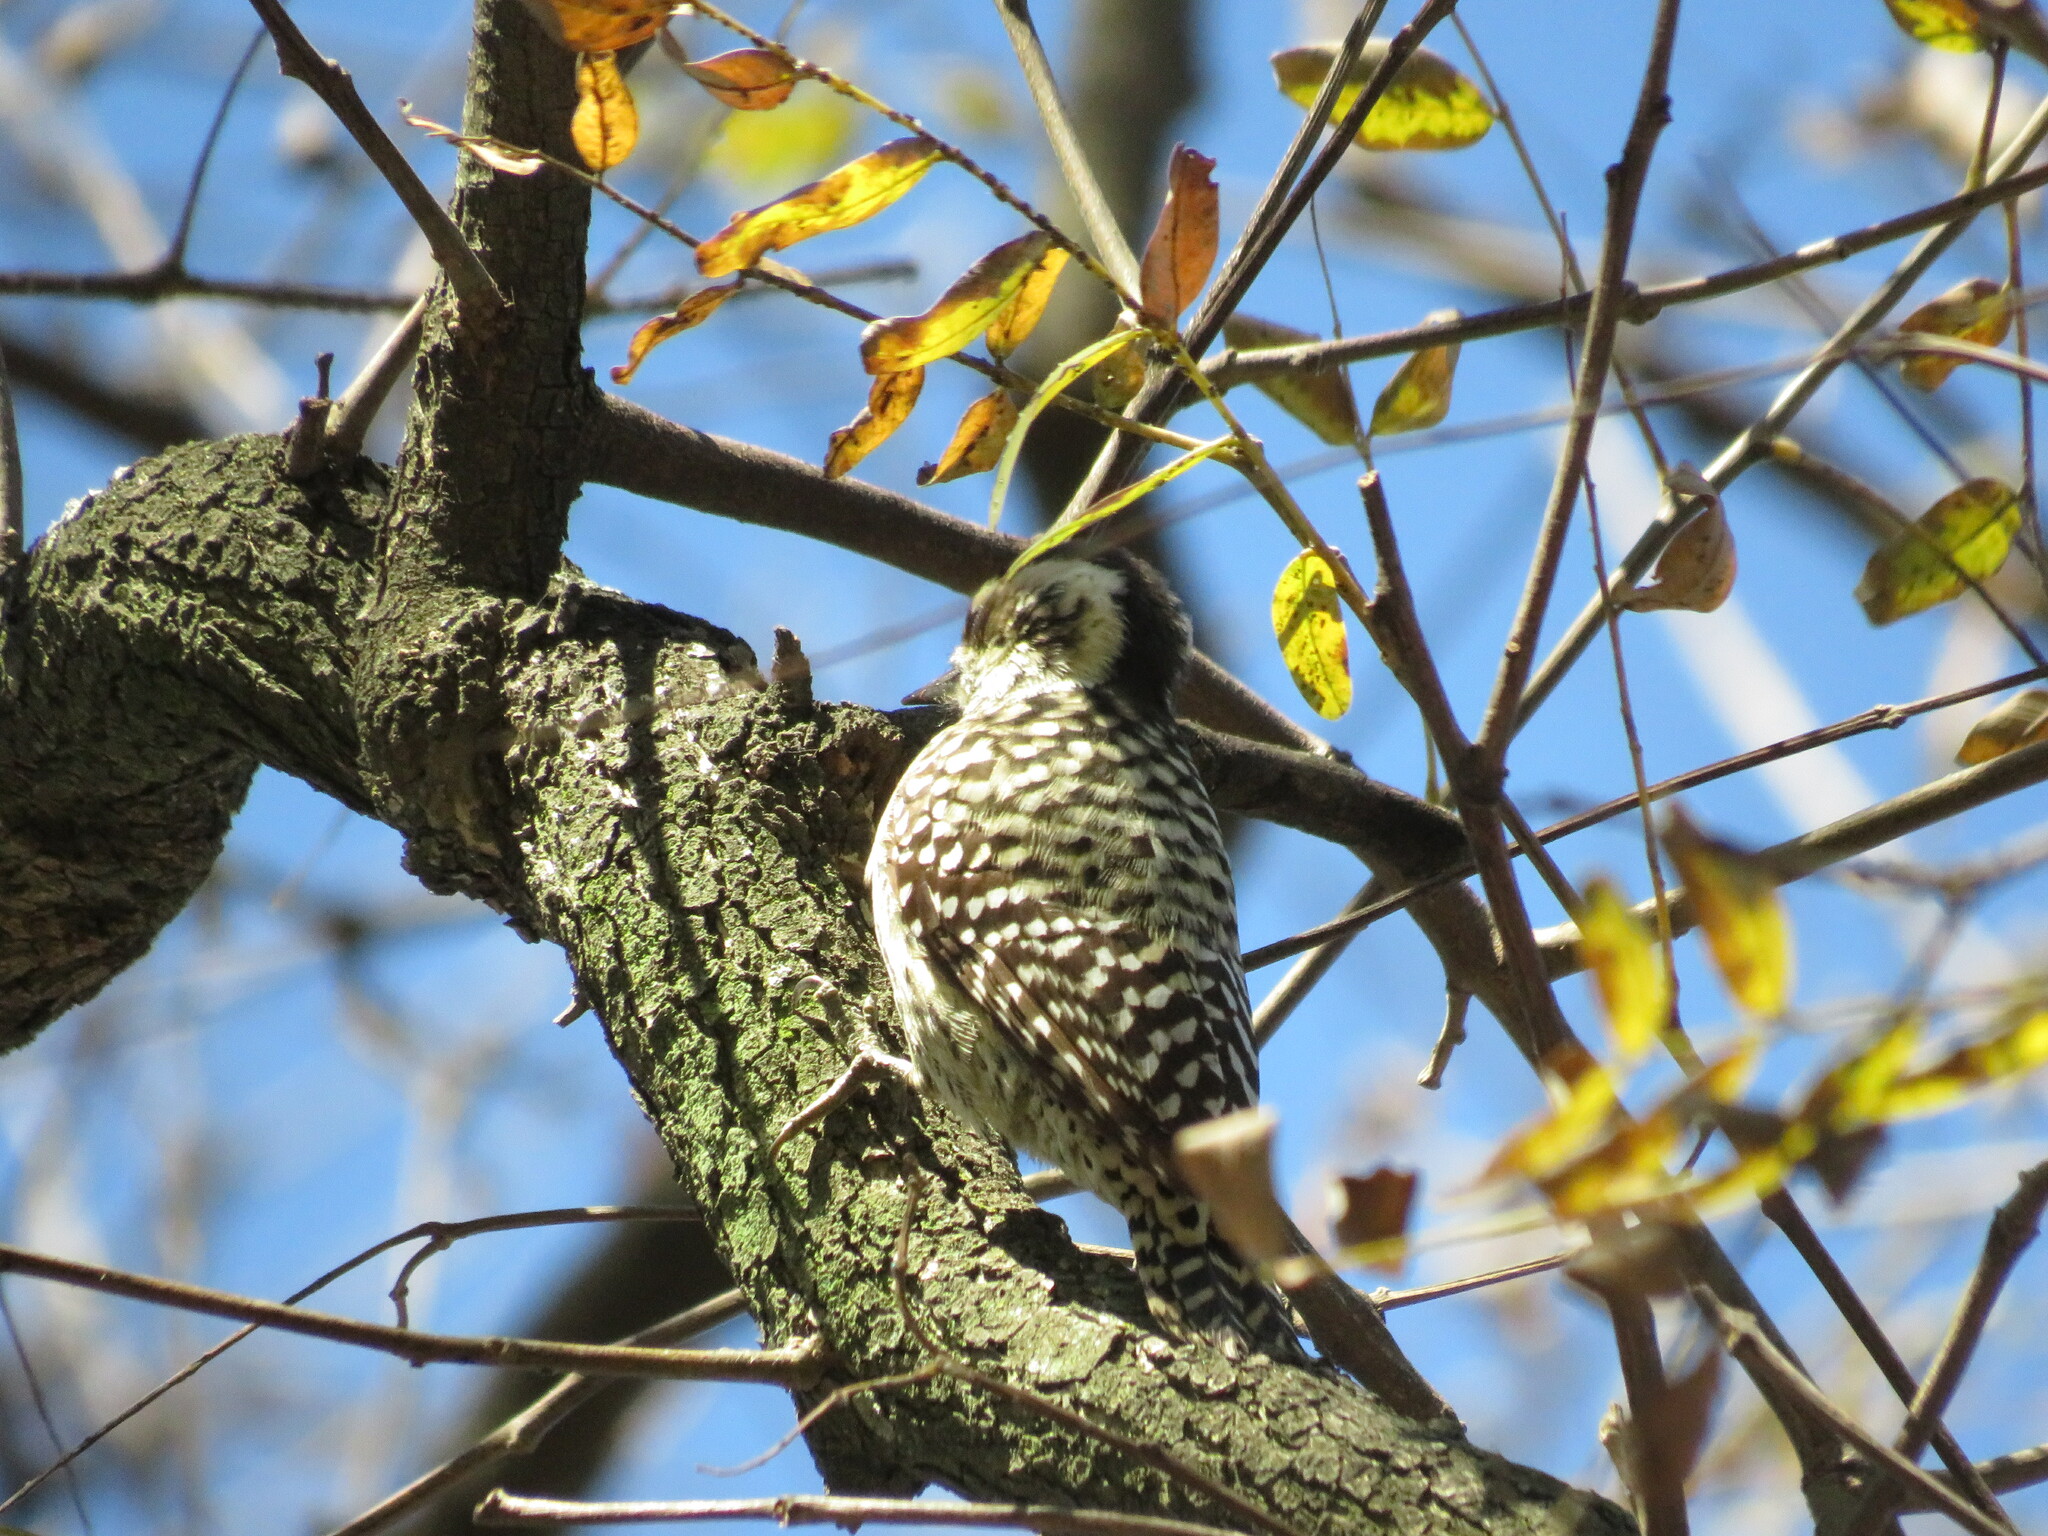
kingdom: Animalia
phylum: Chordata
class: Aves
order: Piciformes
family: Picidae
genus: Veniliornis
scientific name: Veniliornis mixtus
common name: Checkered woodpecker
